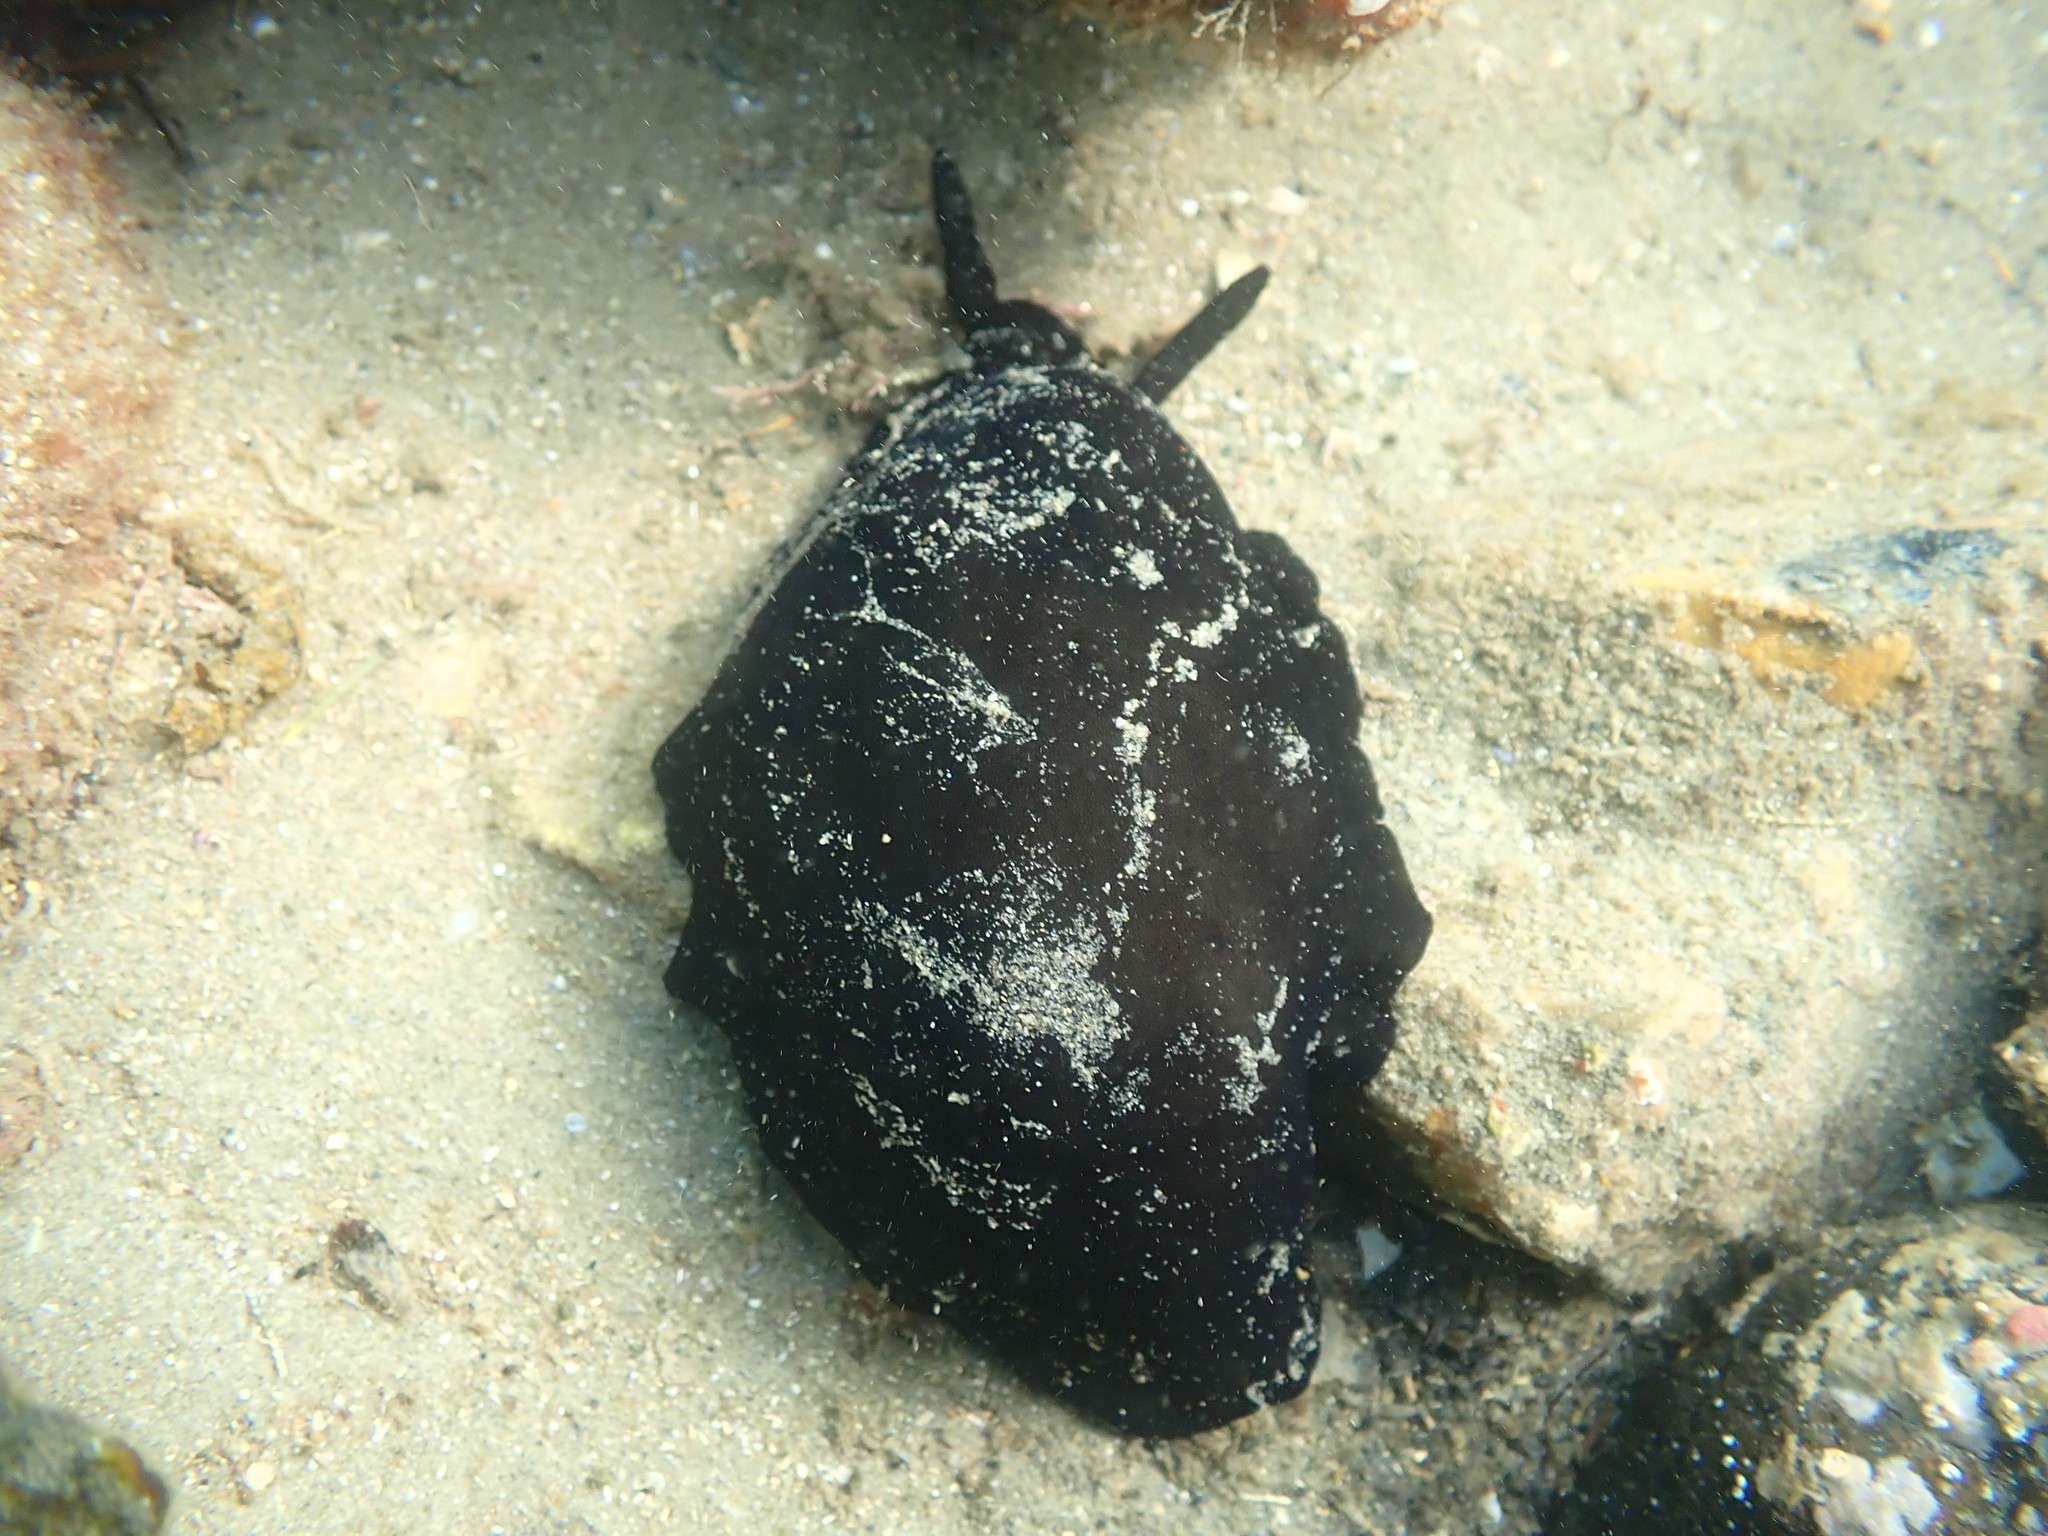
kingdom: Animalia
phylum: Mollusca
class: Gastropoda
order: Lepetellida
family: Fissurellidae
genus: Scutus
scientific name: Scutus breviculus
